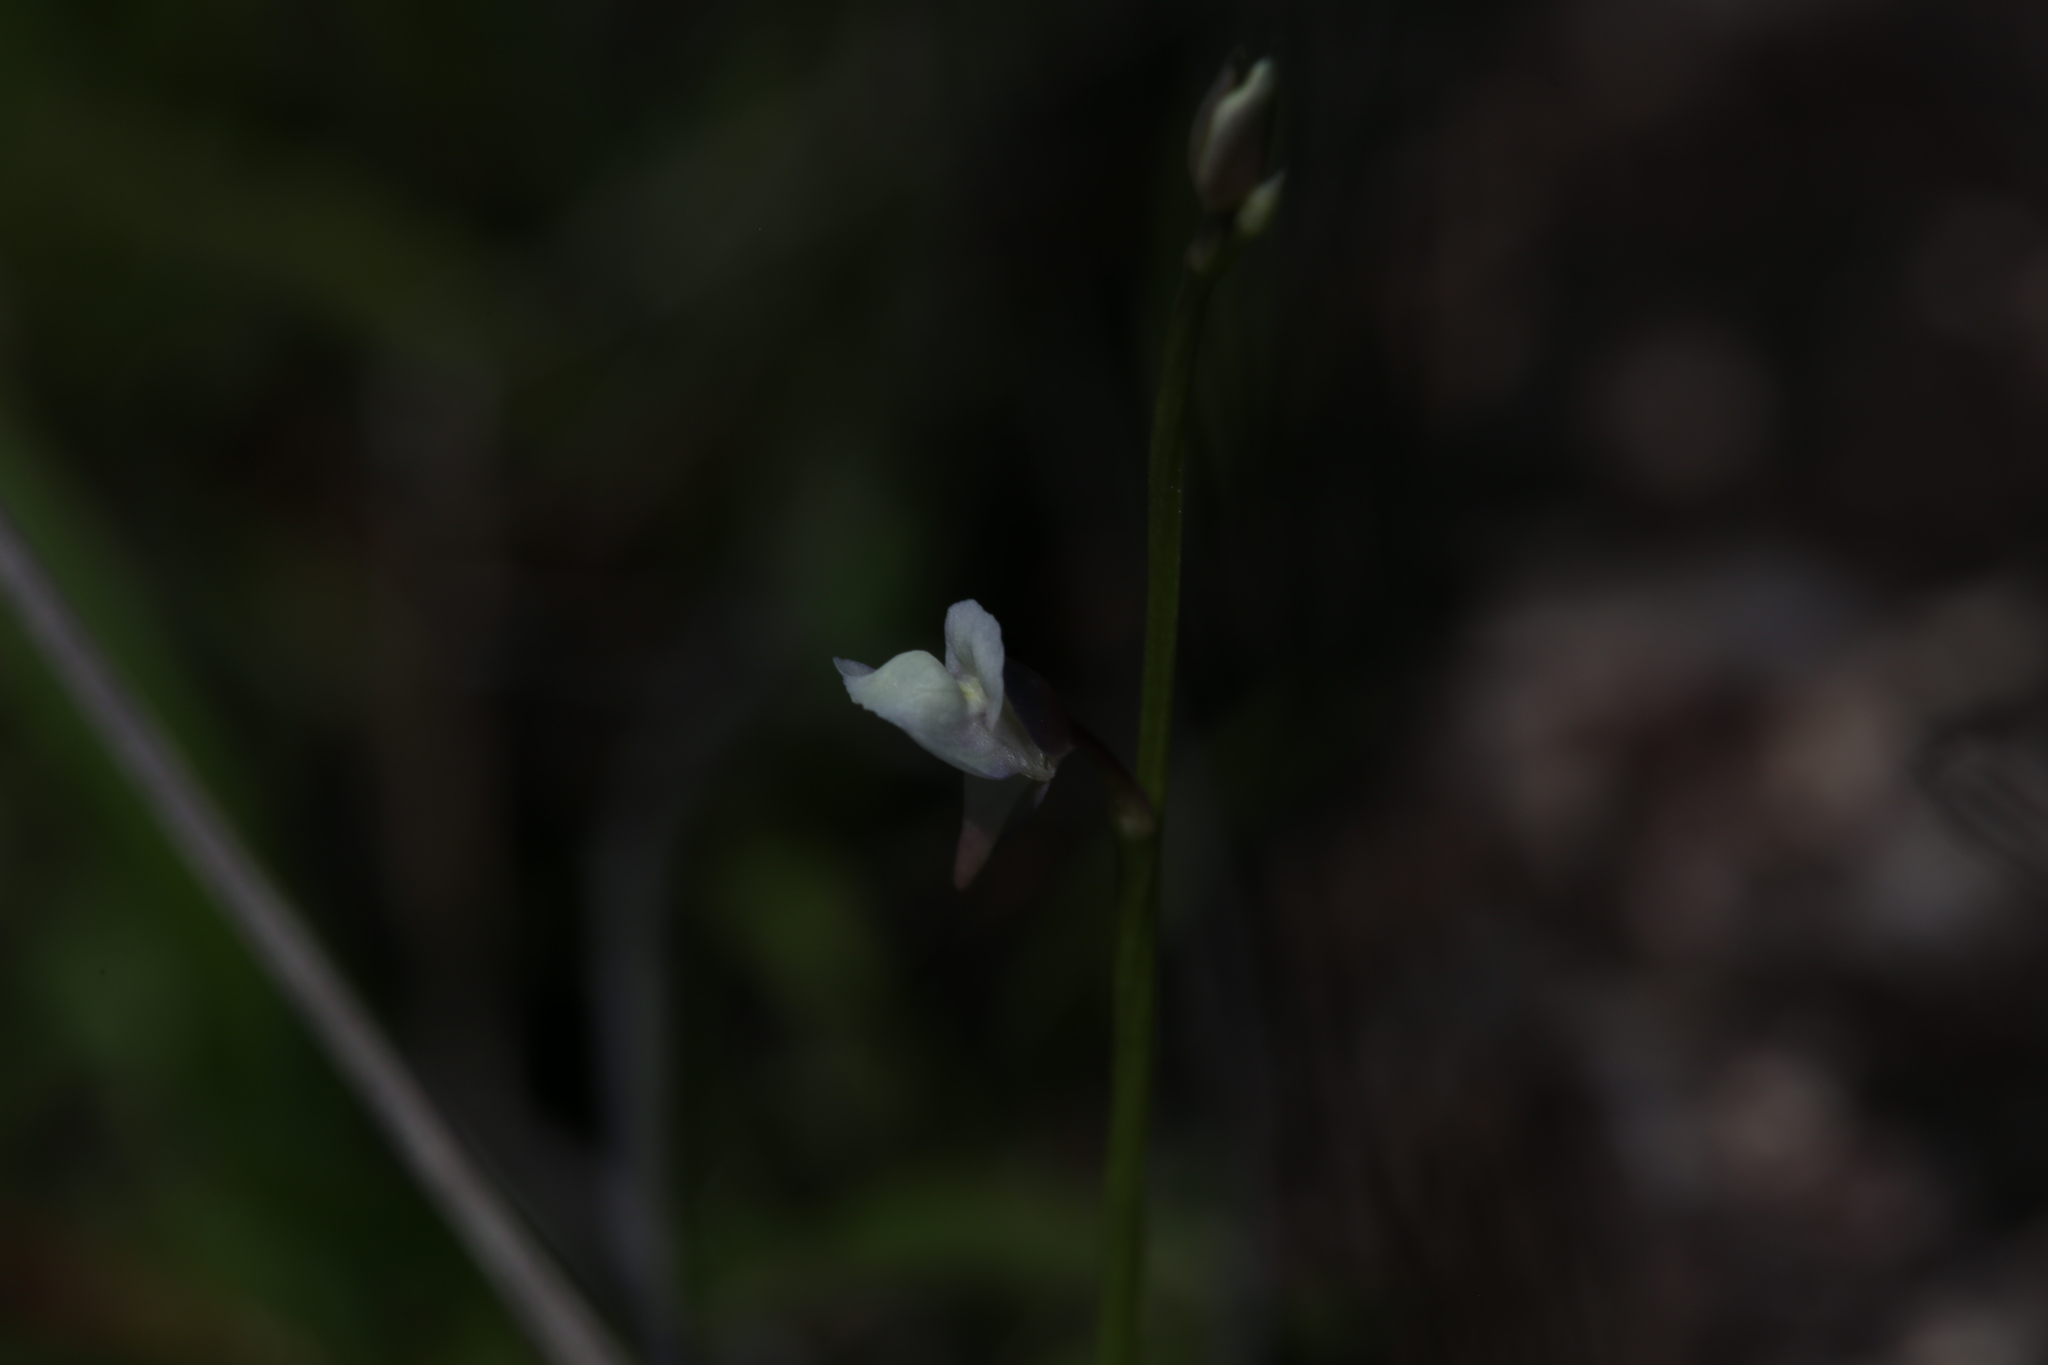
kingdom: Plantae
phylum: Tracheophyta
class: Magnoliopsida
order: Lamiales
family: Lentibulariaceae
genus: Utricularia
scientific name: Utricularia uliginosa
